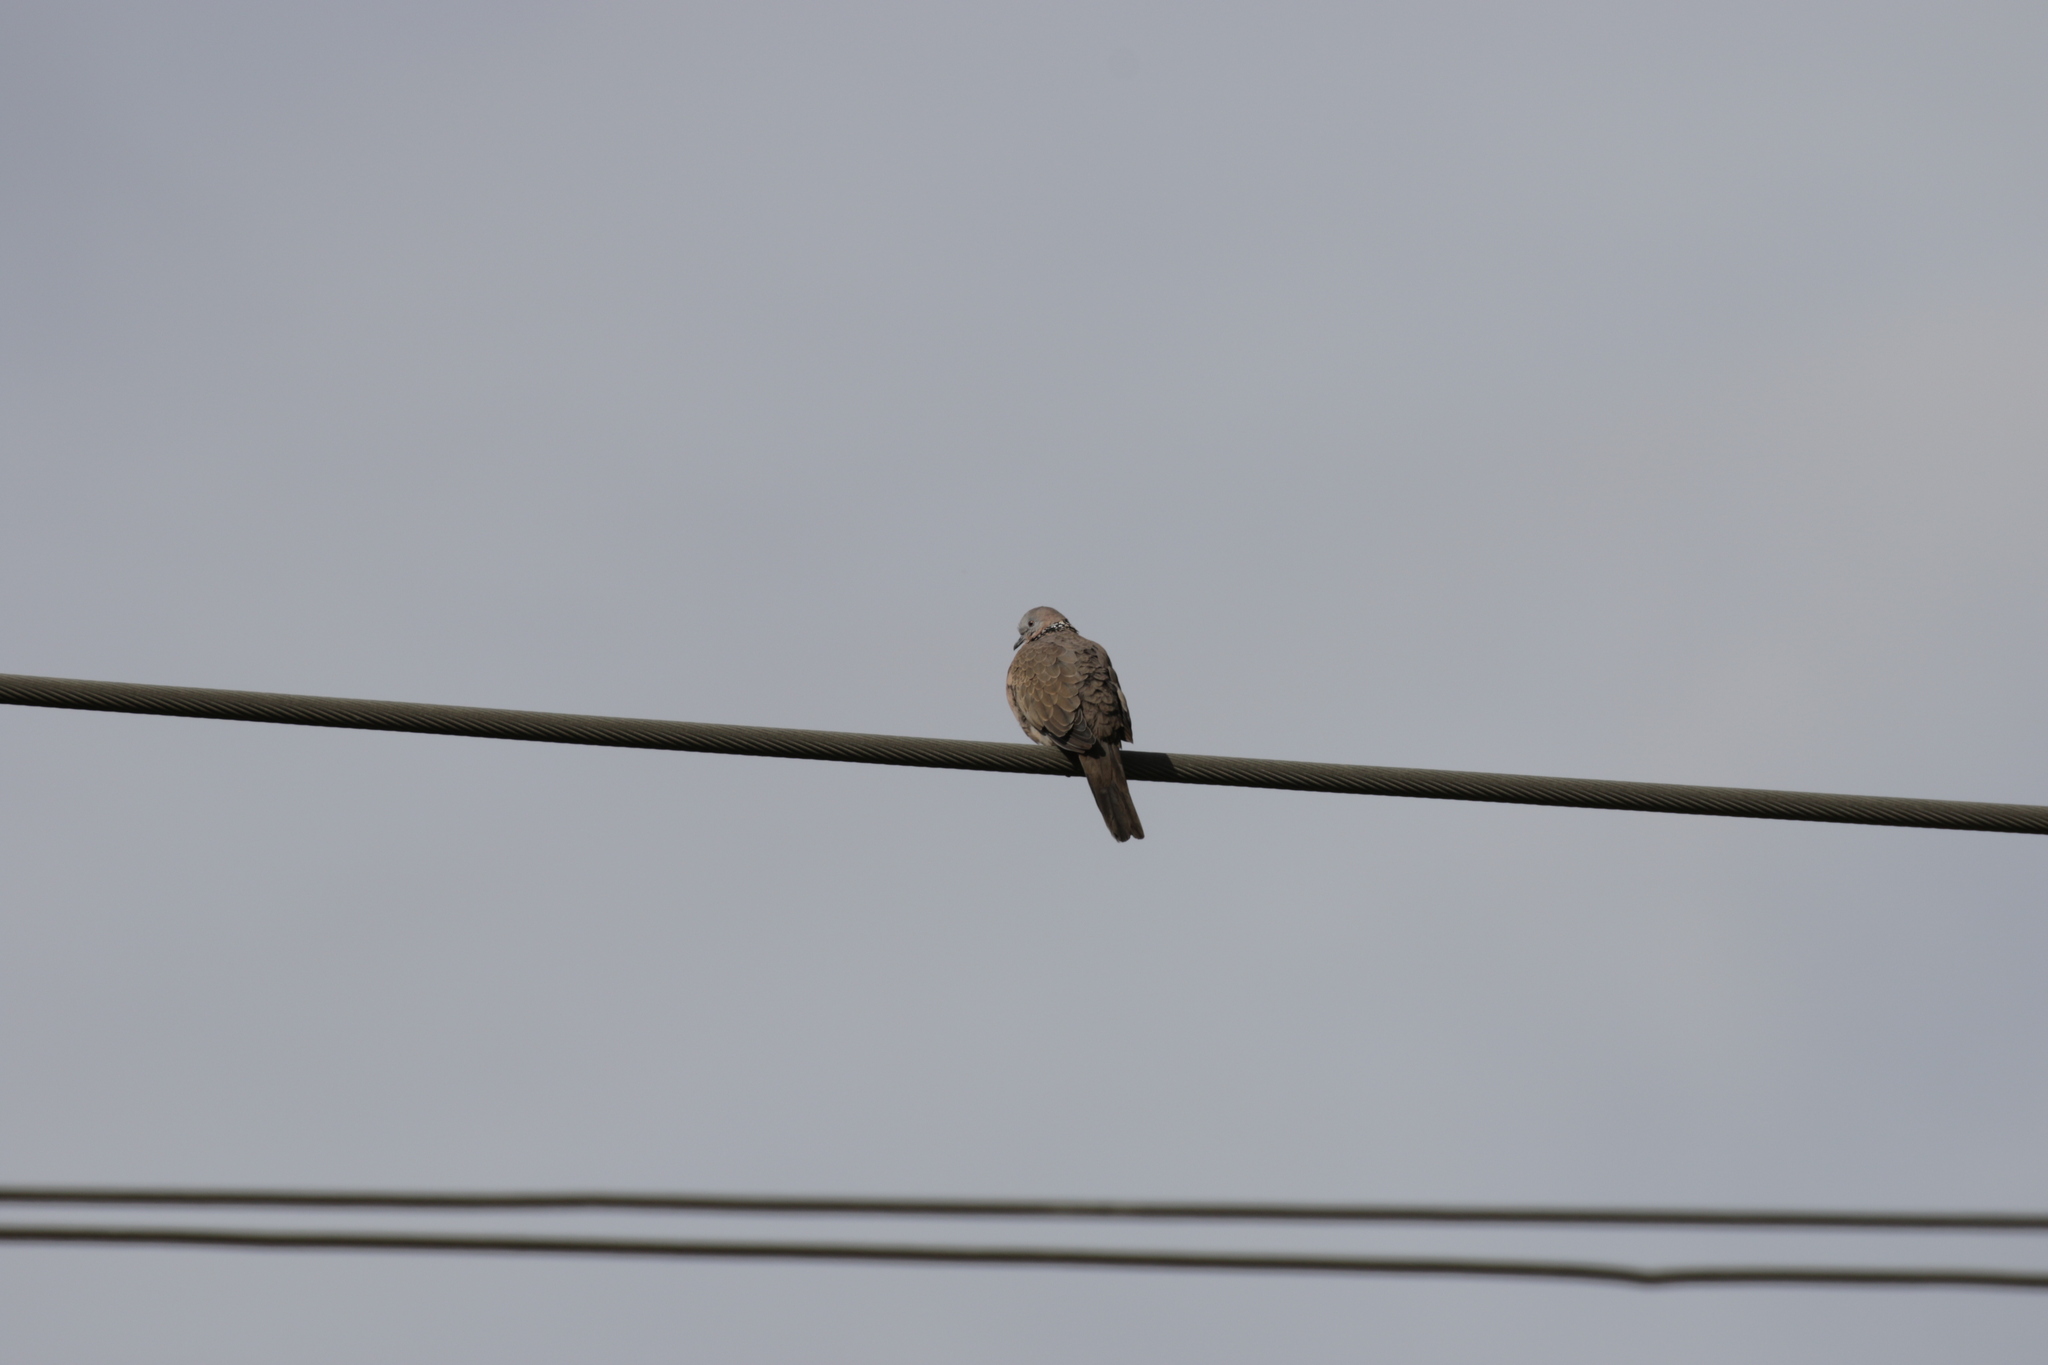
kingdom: Animalia
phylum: Chordata
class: Aves
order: Columbiformes
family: Columbidae
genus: Spilopelia
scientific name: Spilopelia chinensis
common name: Spotted dove
